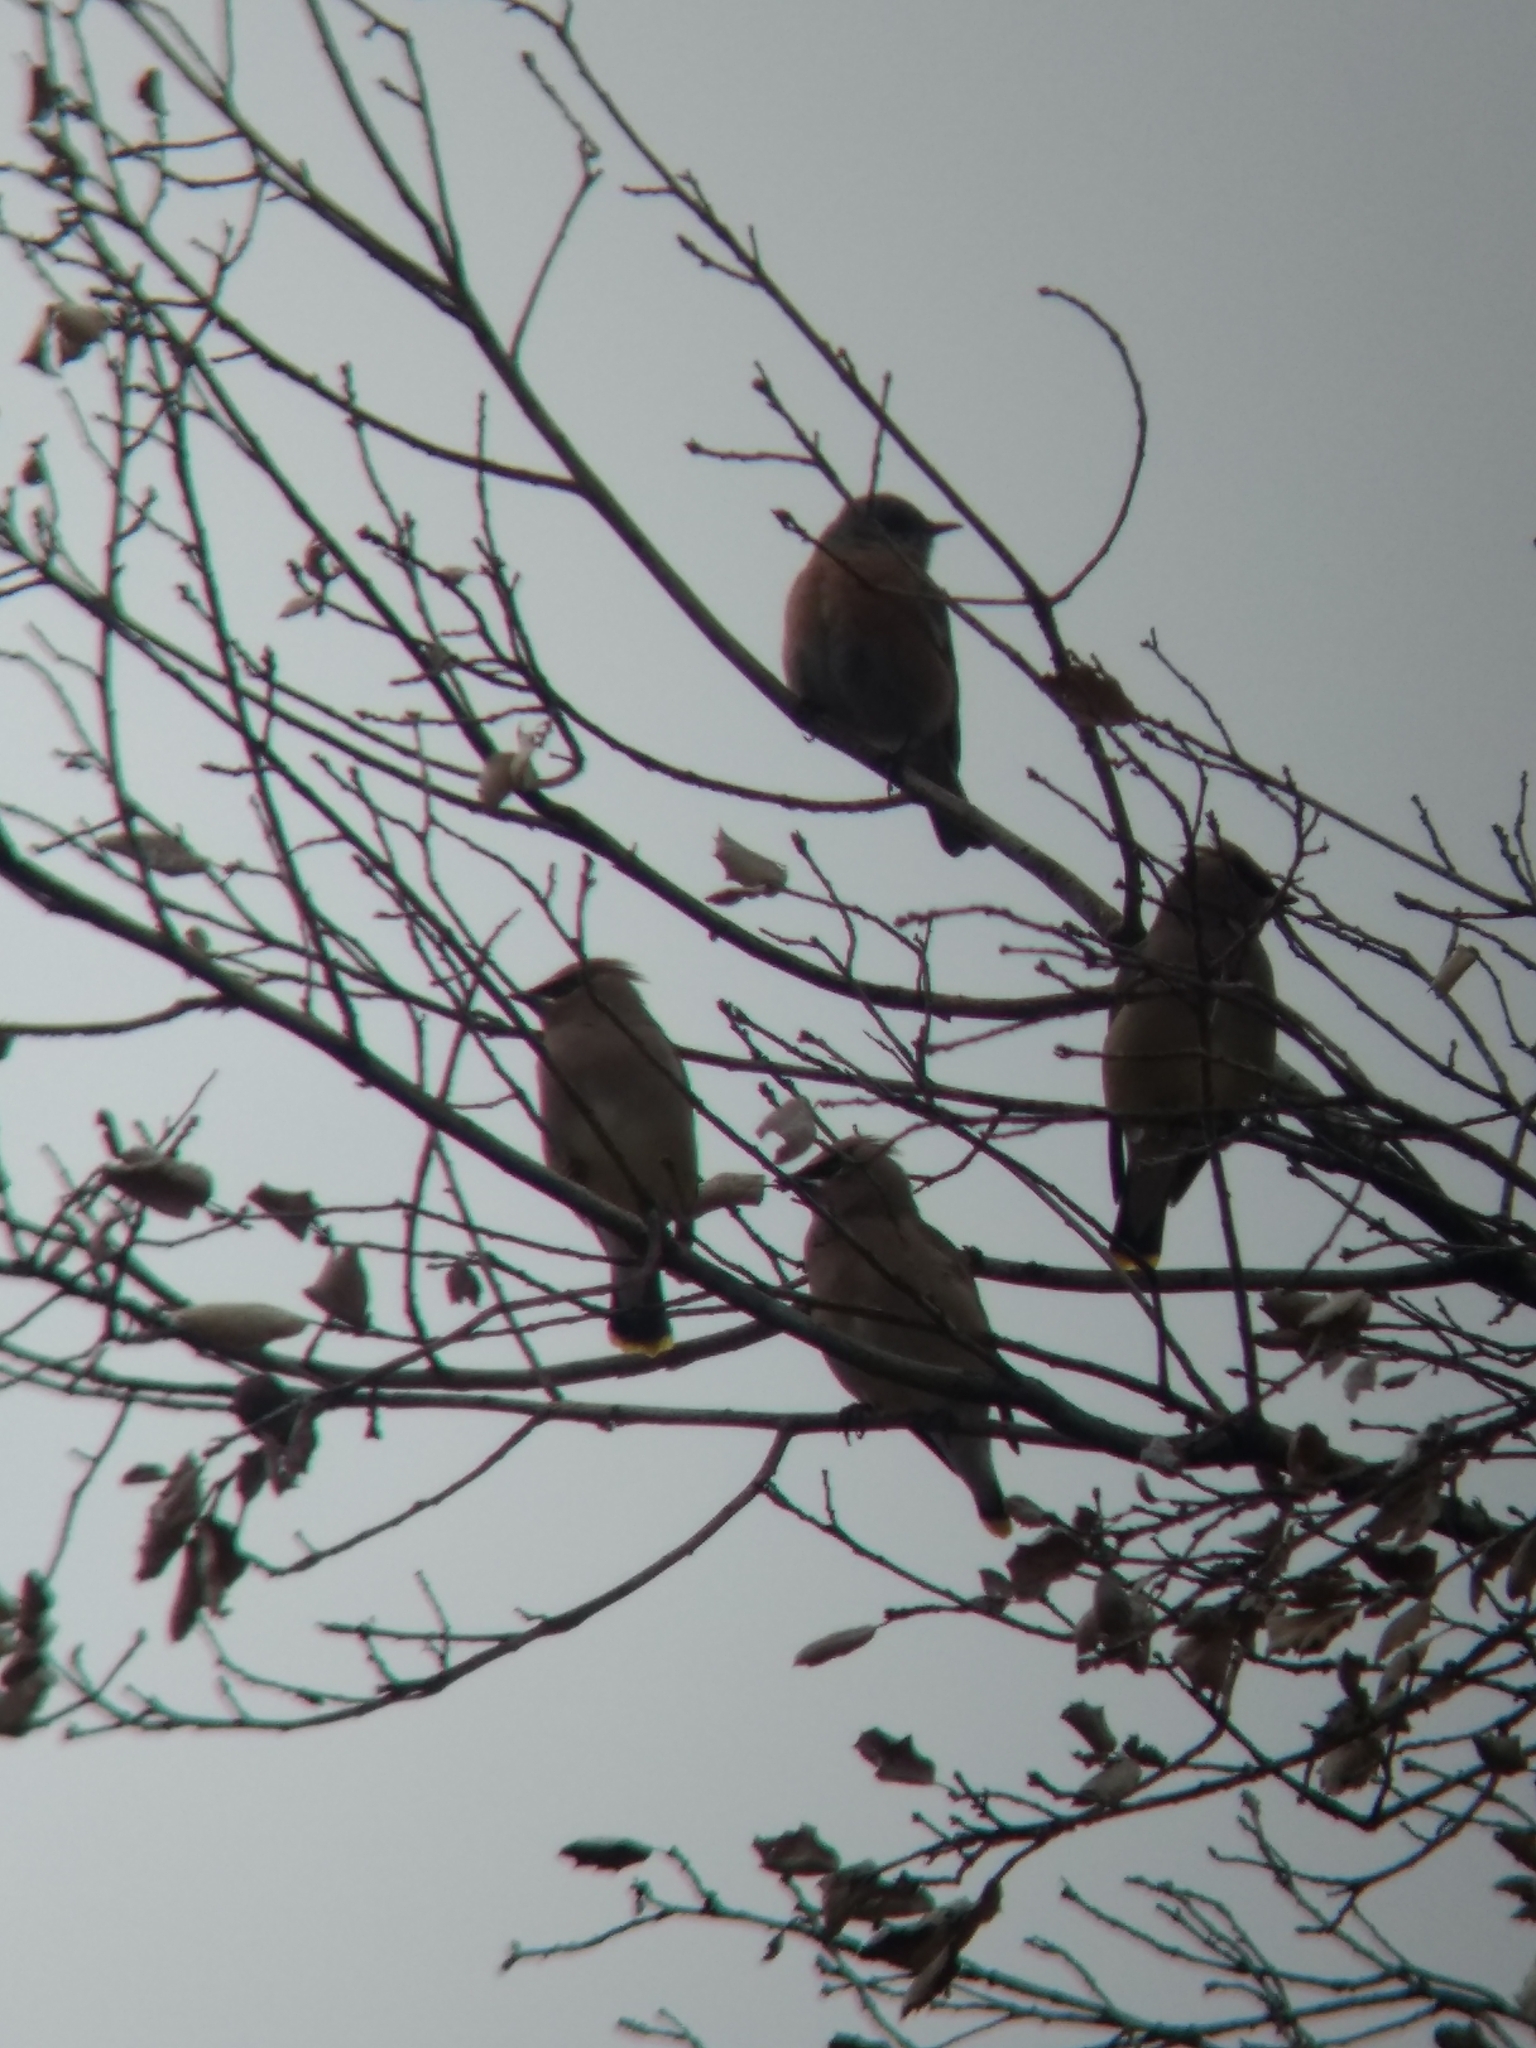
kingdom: Animalia
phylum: Chordata
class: Aves
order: Passeriformes
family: Bombycillidae
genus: Bombycilla
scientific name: Bombycilla cedrorum
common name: Cedar waxwing
